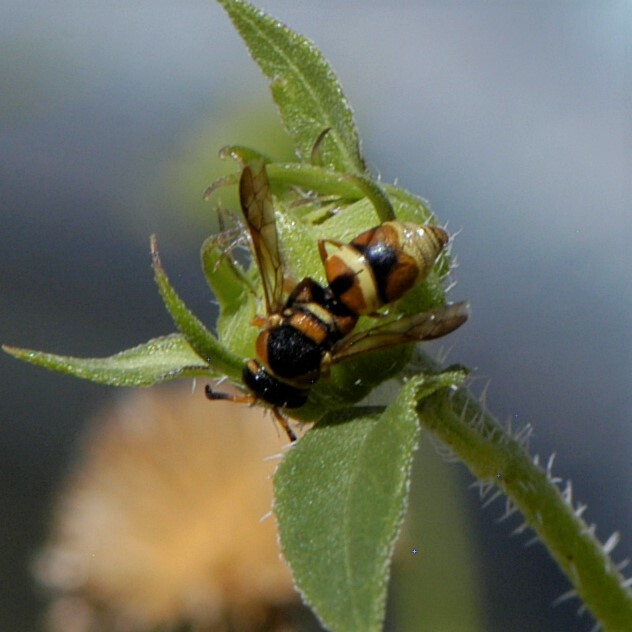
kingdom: Animalia
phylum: Arthropoda
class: Insecta
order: Hymenoptera
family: Eumenidae
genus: Euodynerus
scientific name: Euodynerus hidalgo
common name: Wasp
